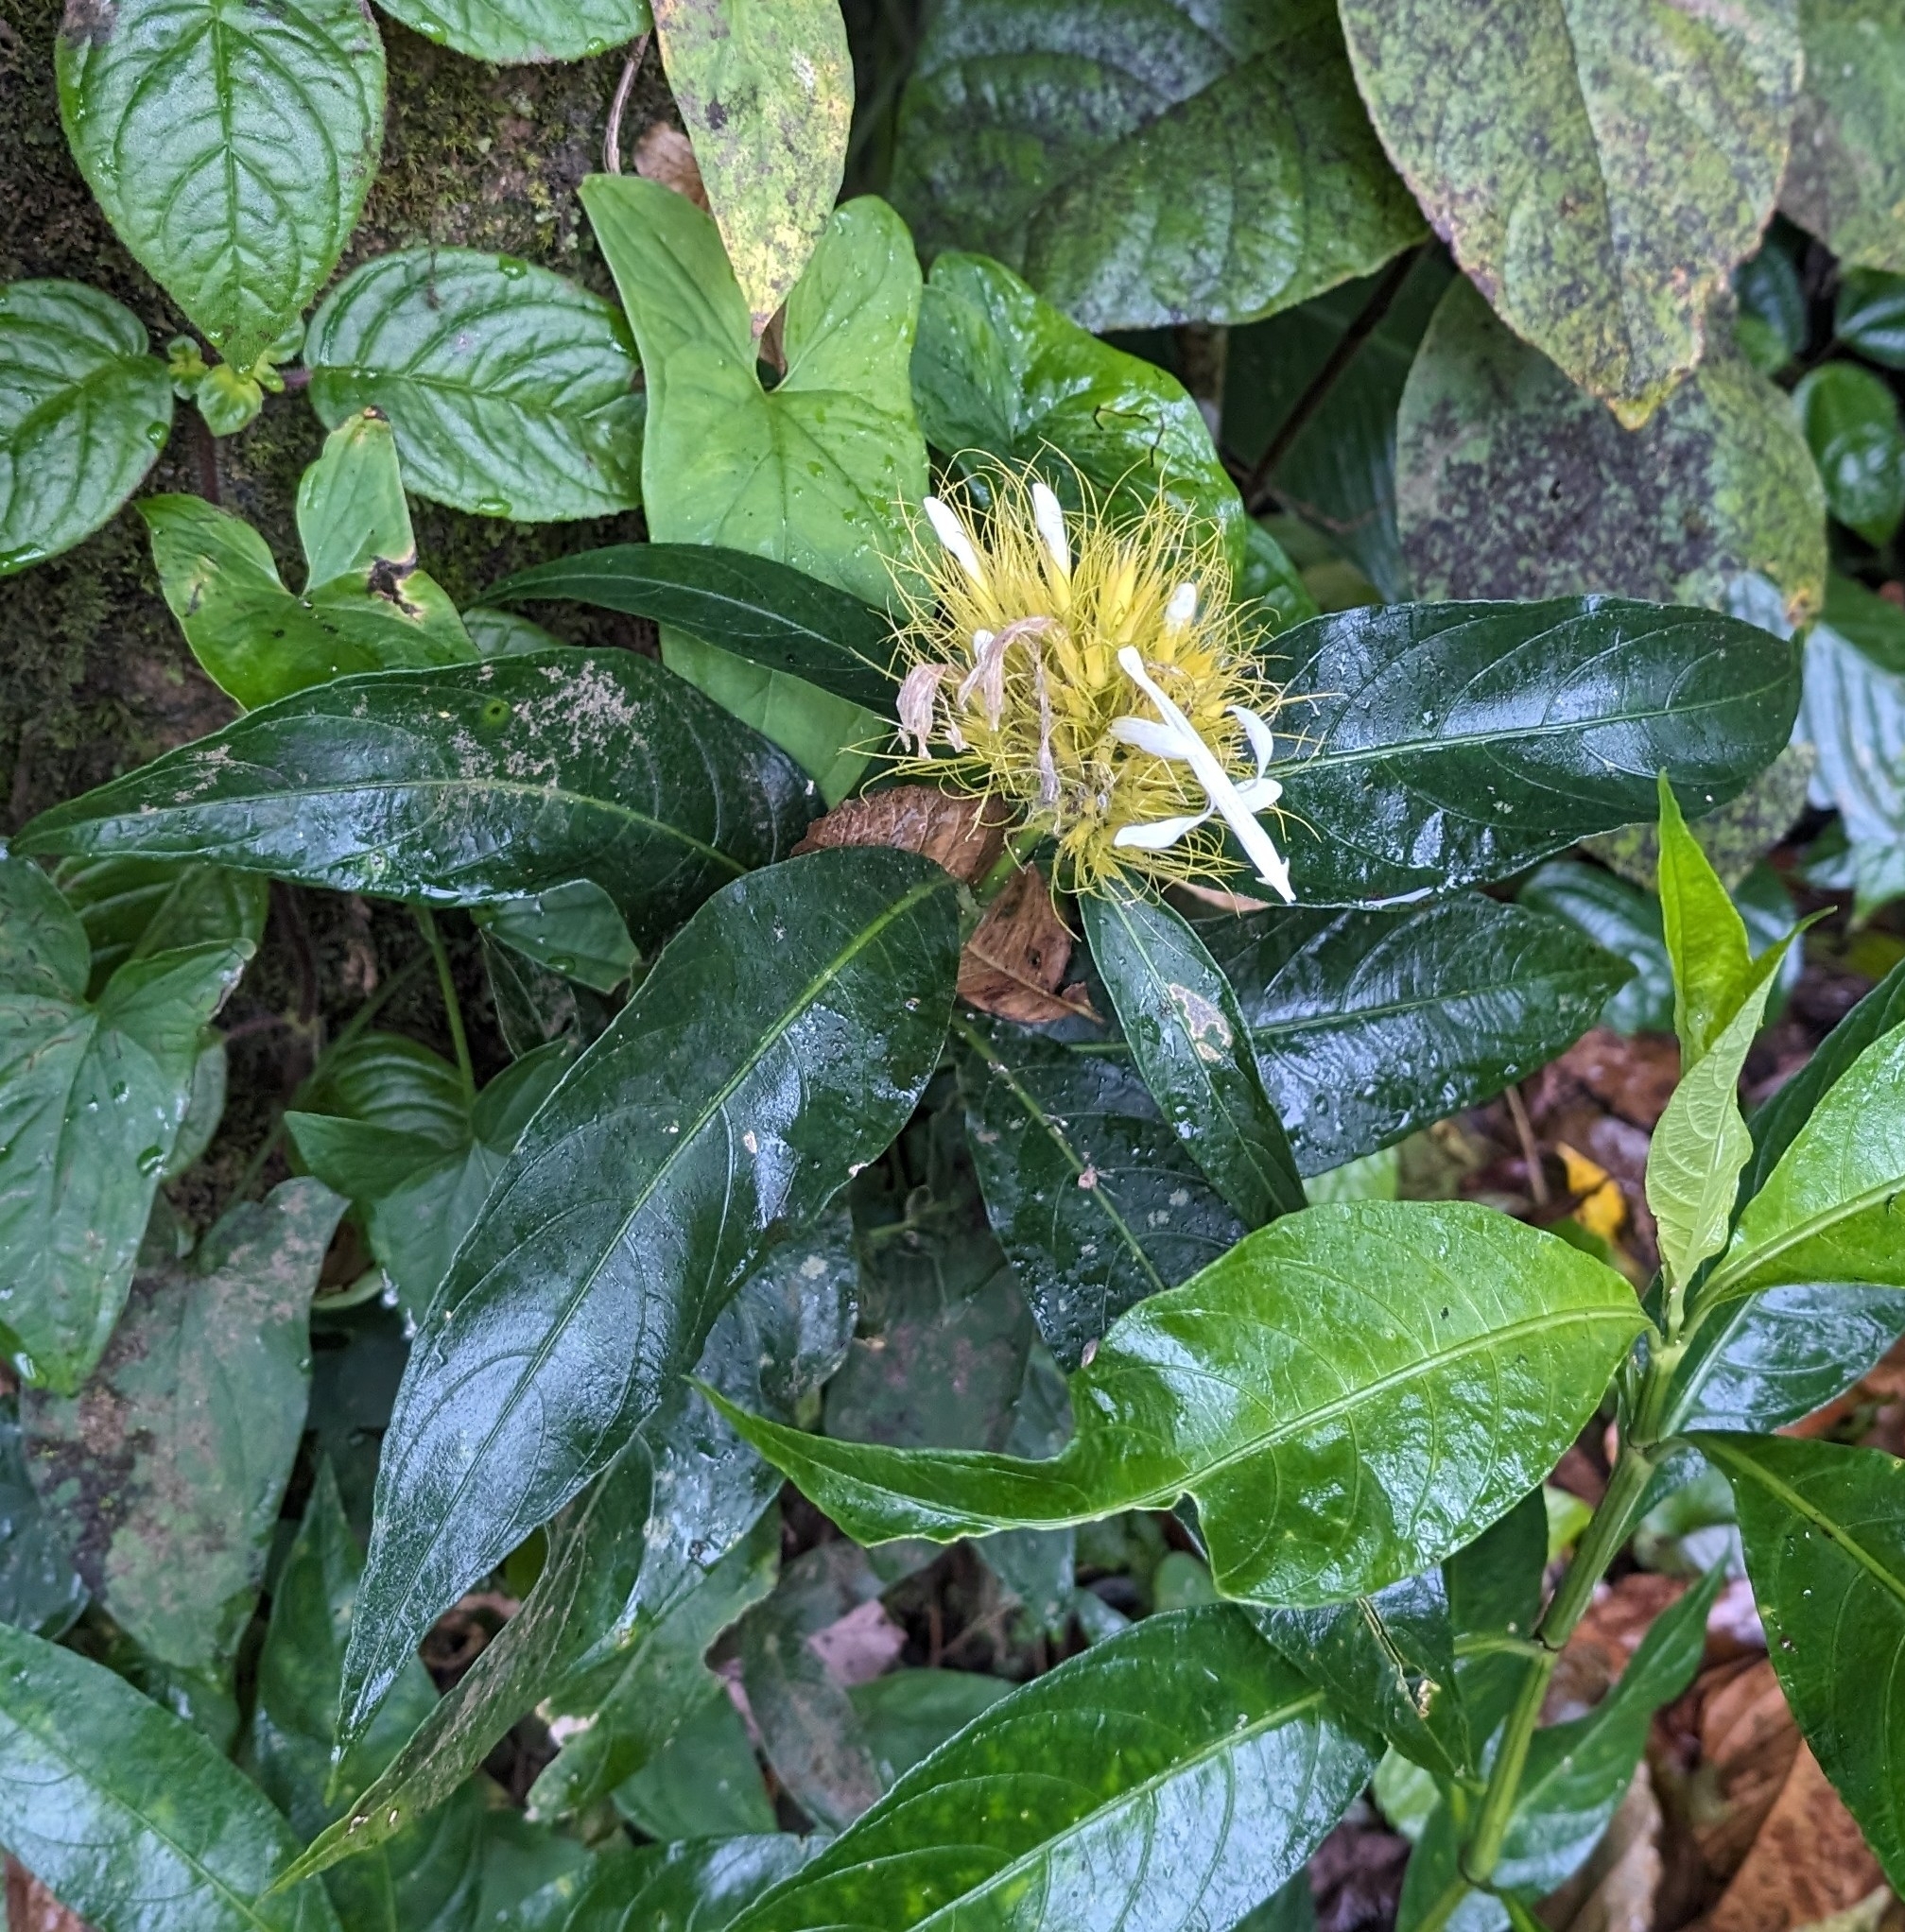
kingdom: Plantae
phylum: Tracheophyta
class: Magnoliopsida
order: Lamiales
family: Acanthaceae
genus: Justicia
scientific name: Justicia croceochlamys
